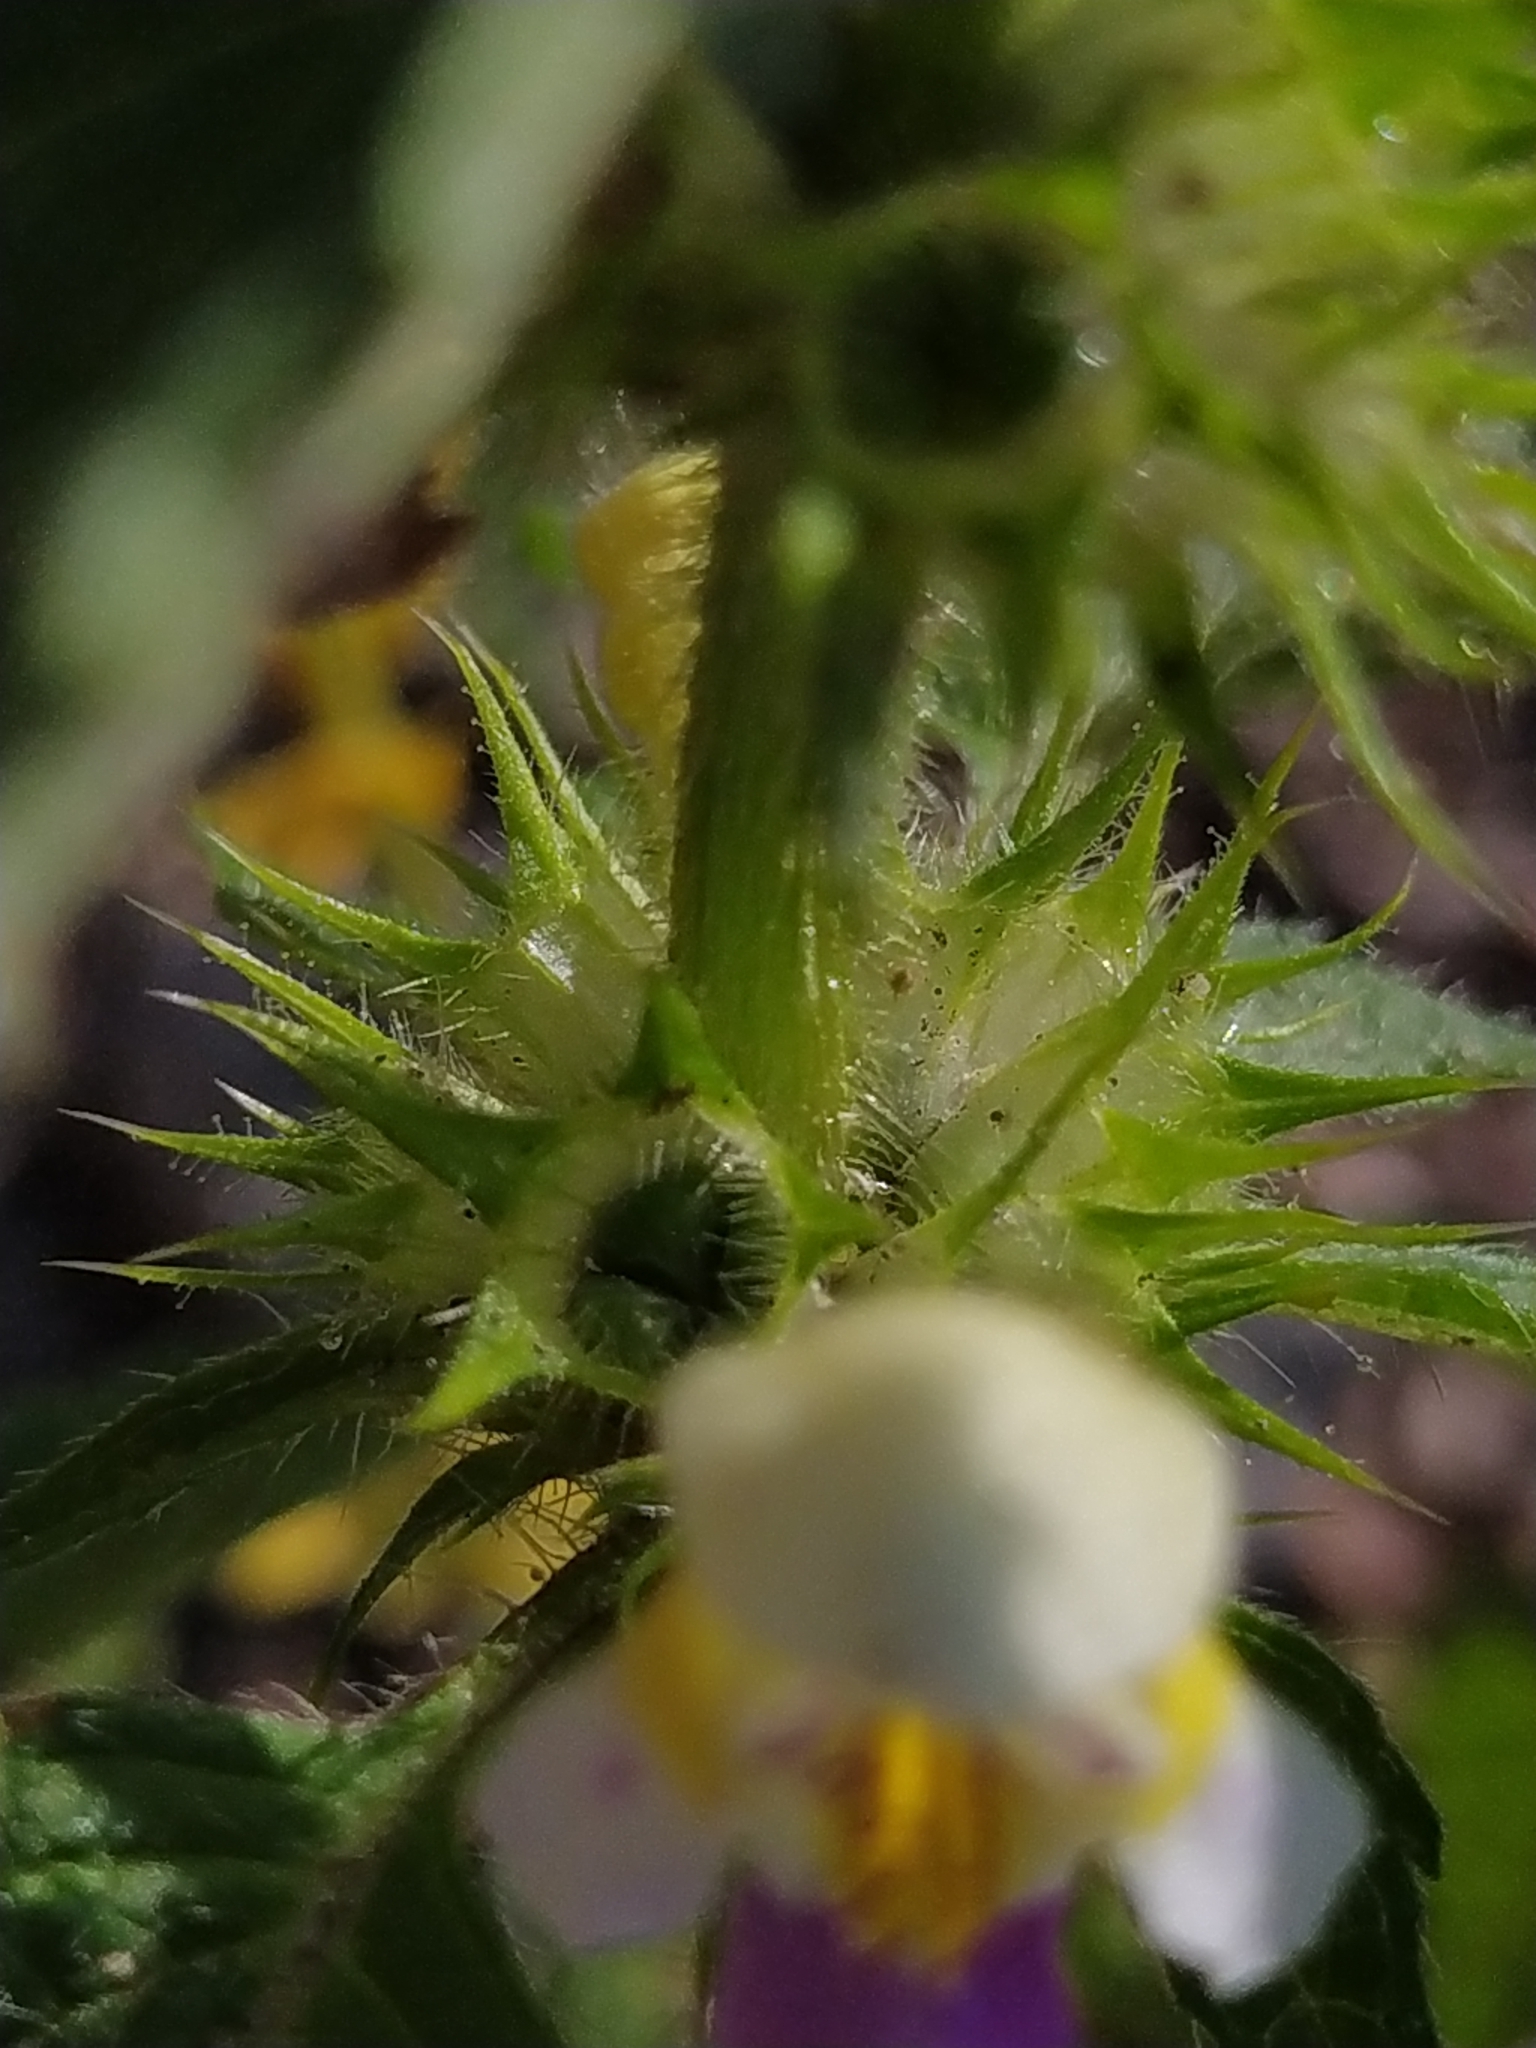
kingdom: Plantae
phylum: Tracheophyta
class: Magnoliopsida
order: Lamiales
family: Lamiaceae
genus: Galeopsis
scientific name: Galeopsis speciosa
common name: Large-flowered hemp-nettle
